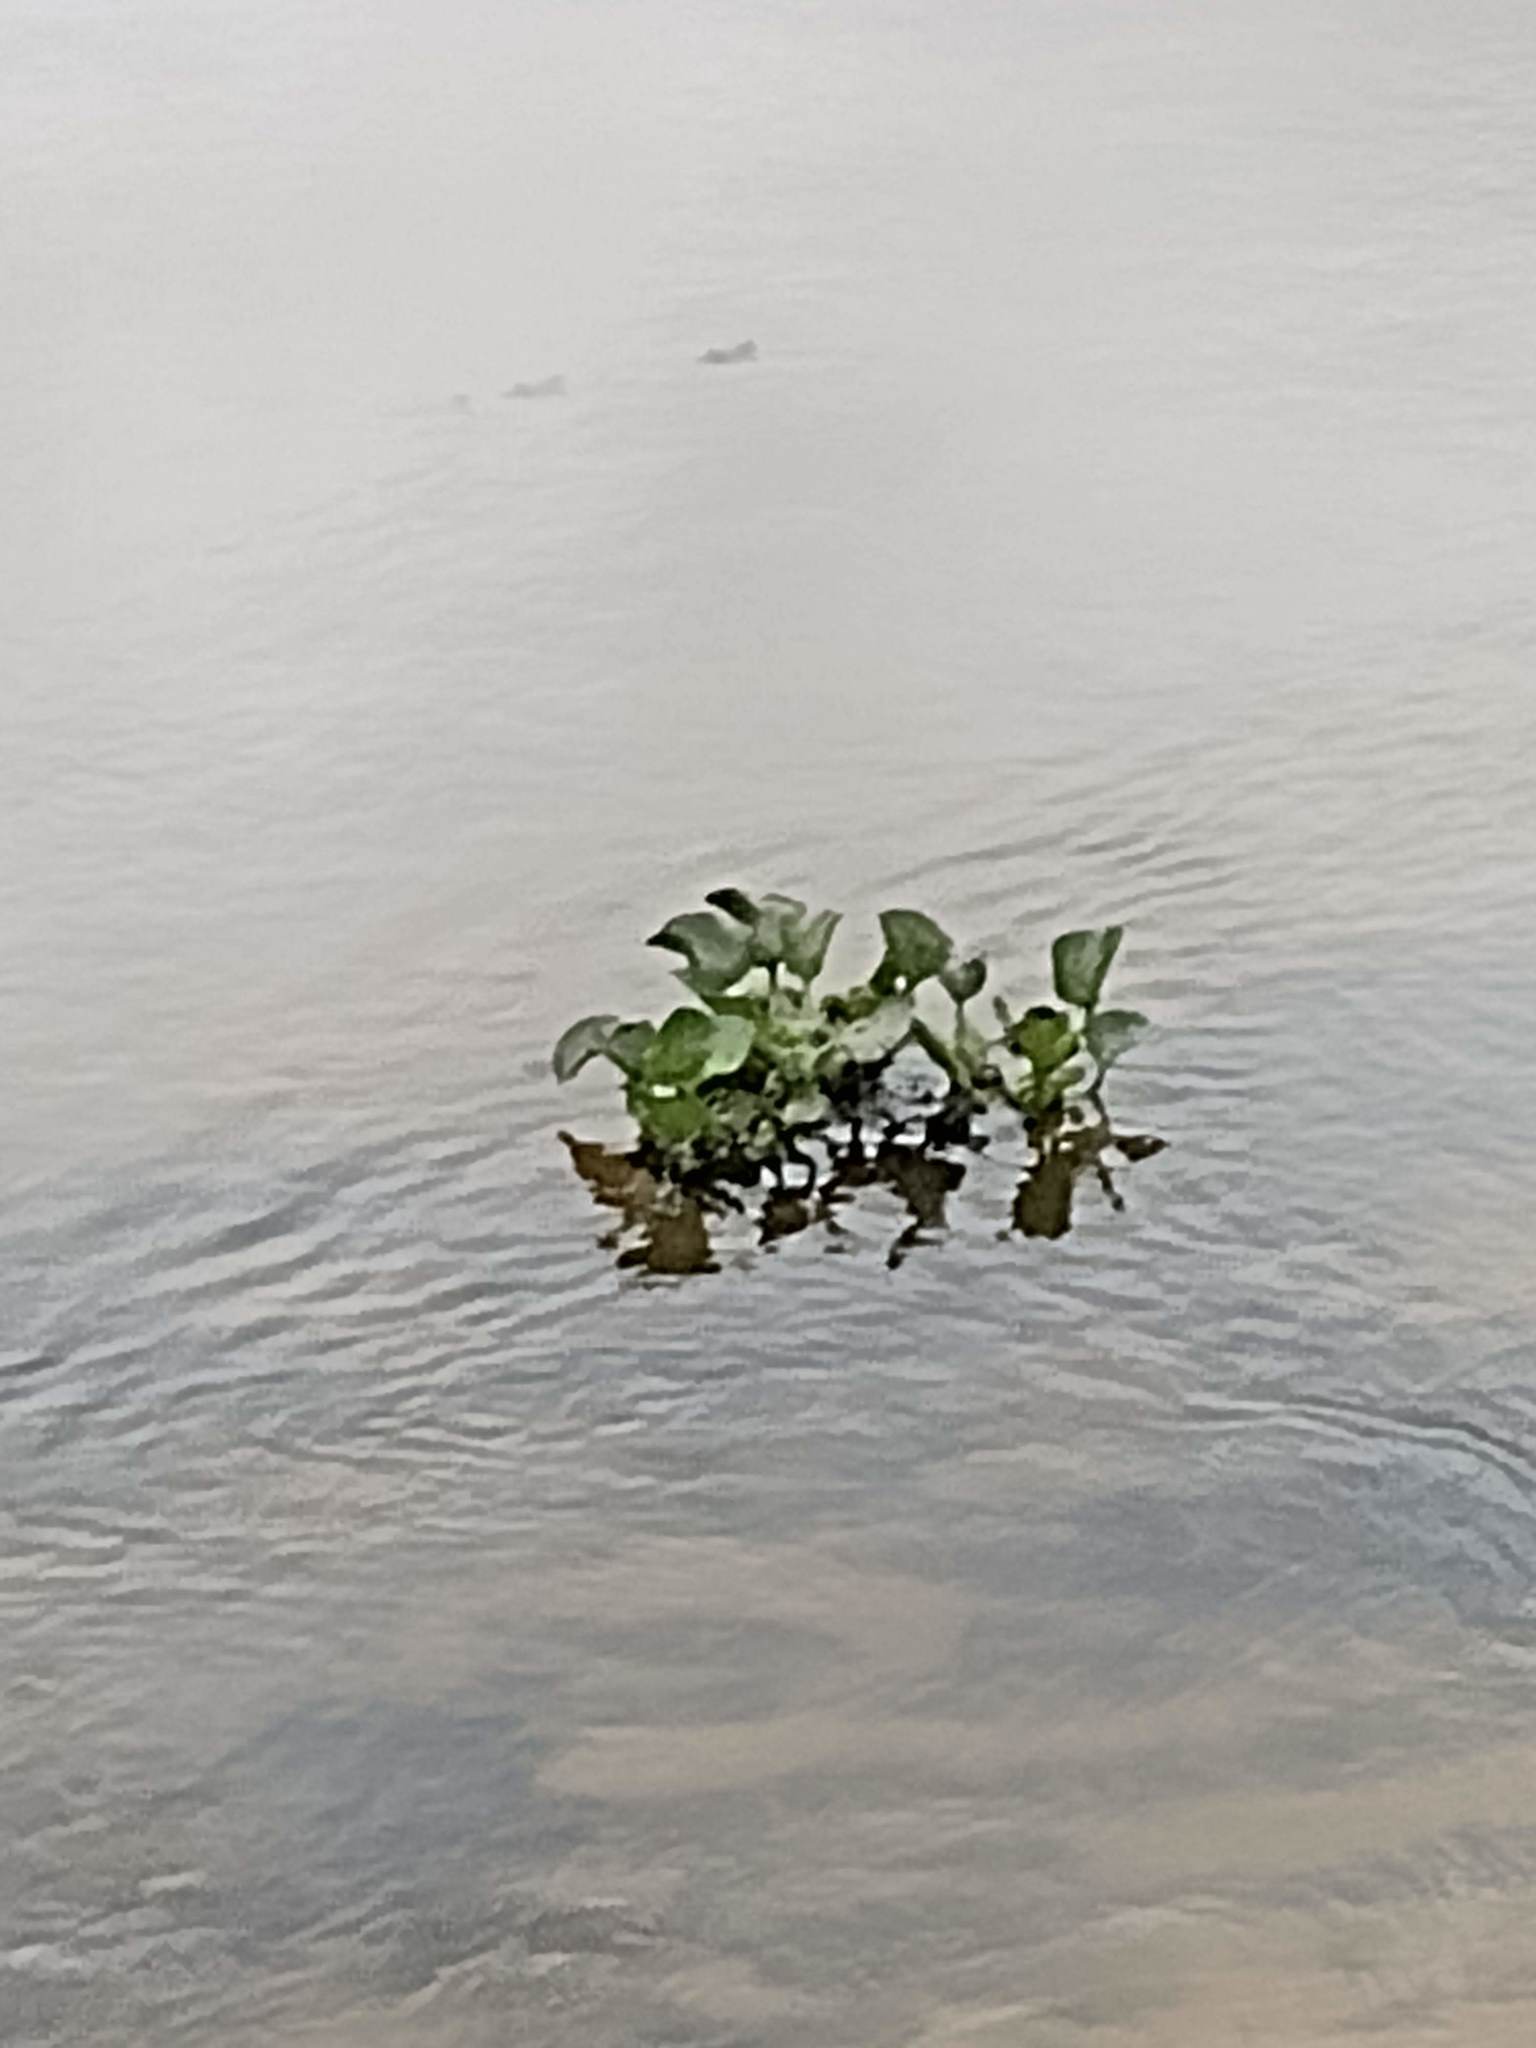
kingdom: Plantae
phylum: Tracheophyta
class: Liliopsida
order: Commelinales
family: Pontederiaceae
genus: Pontederia
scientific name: Pontederia crassipes
